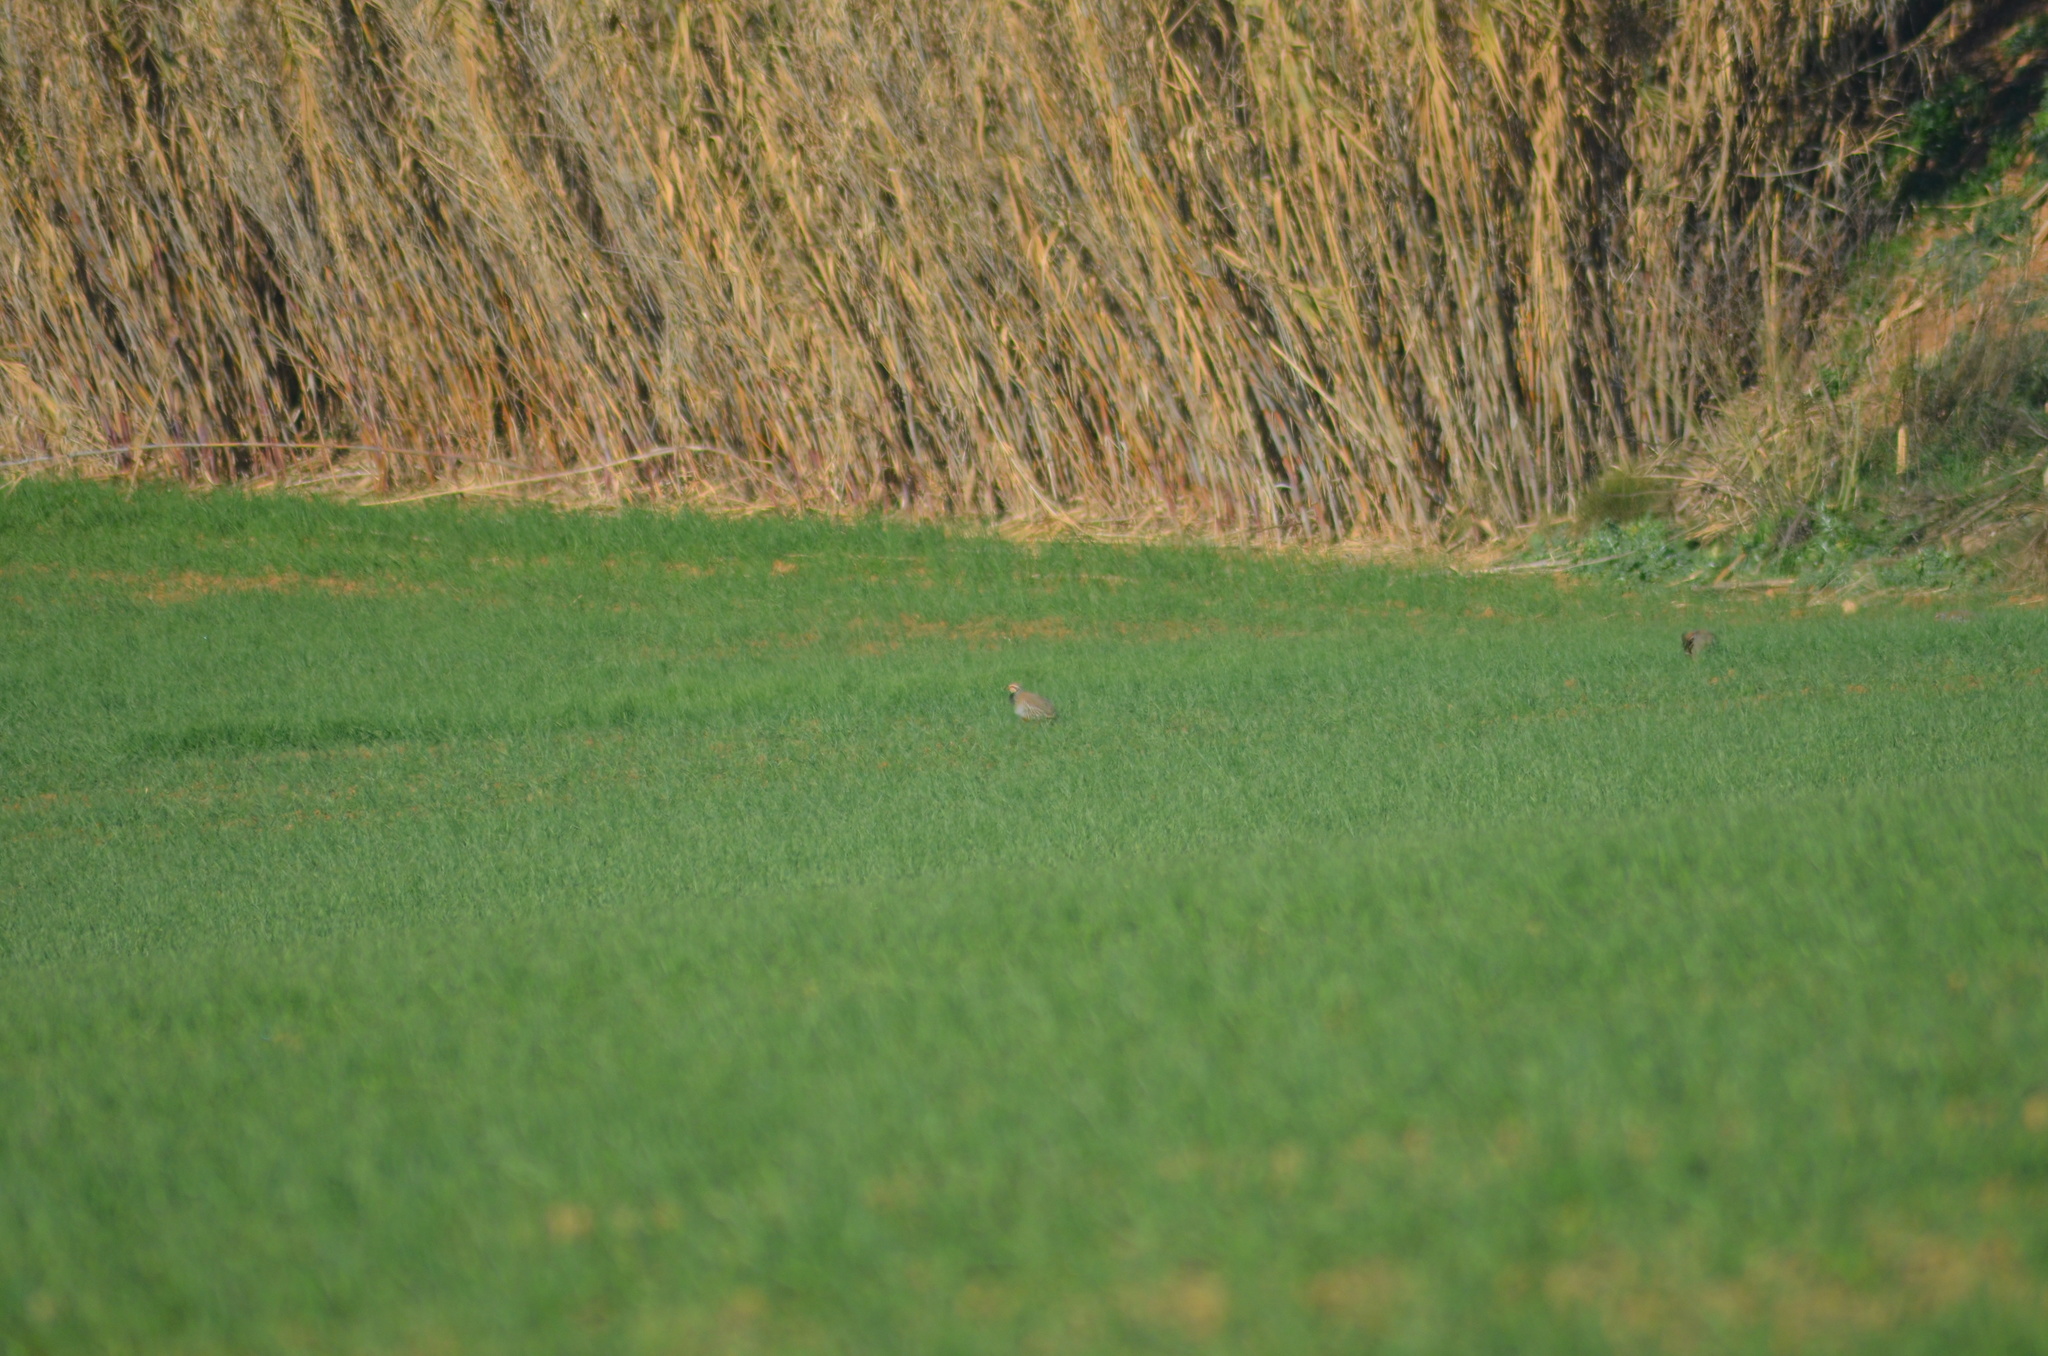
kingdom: Animalia
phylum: Chordata
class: Aves
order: Galliformes
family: Phasianidae
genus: Alectoris
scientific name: Alectoris rufa
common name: Red-legged partridge
